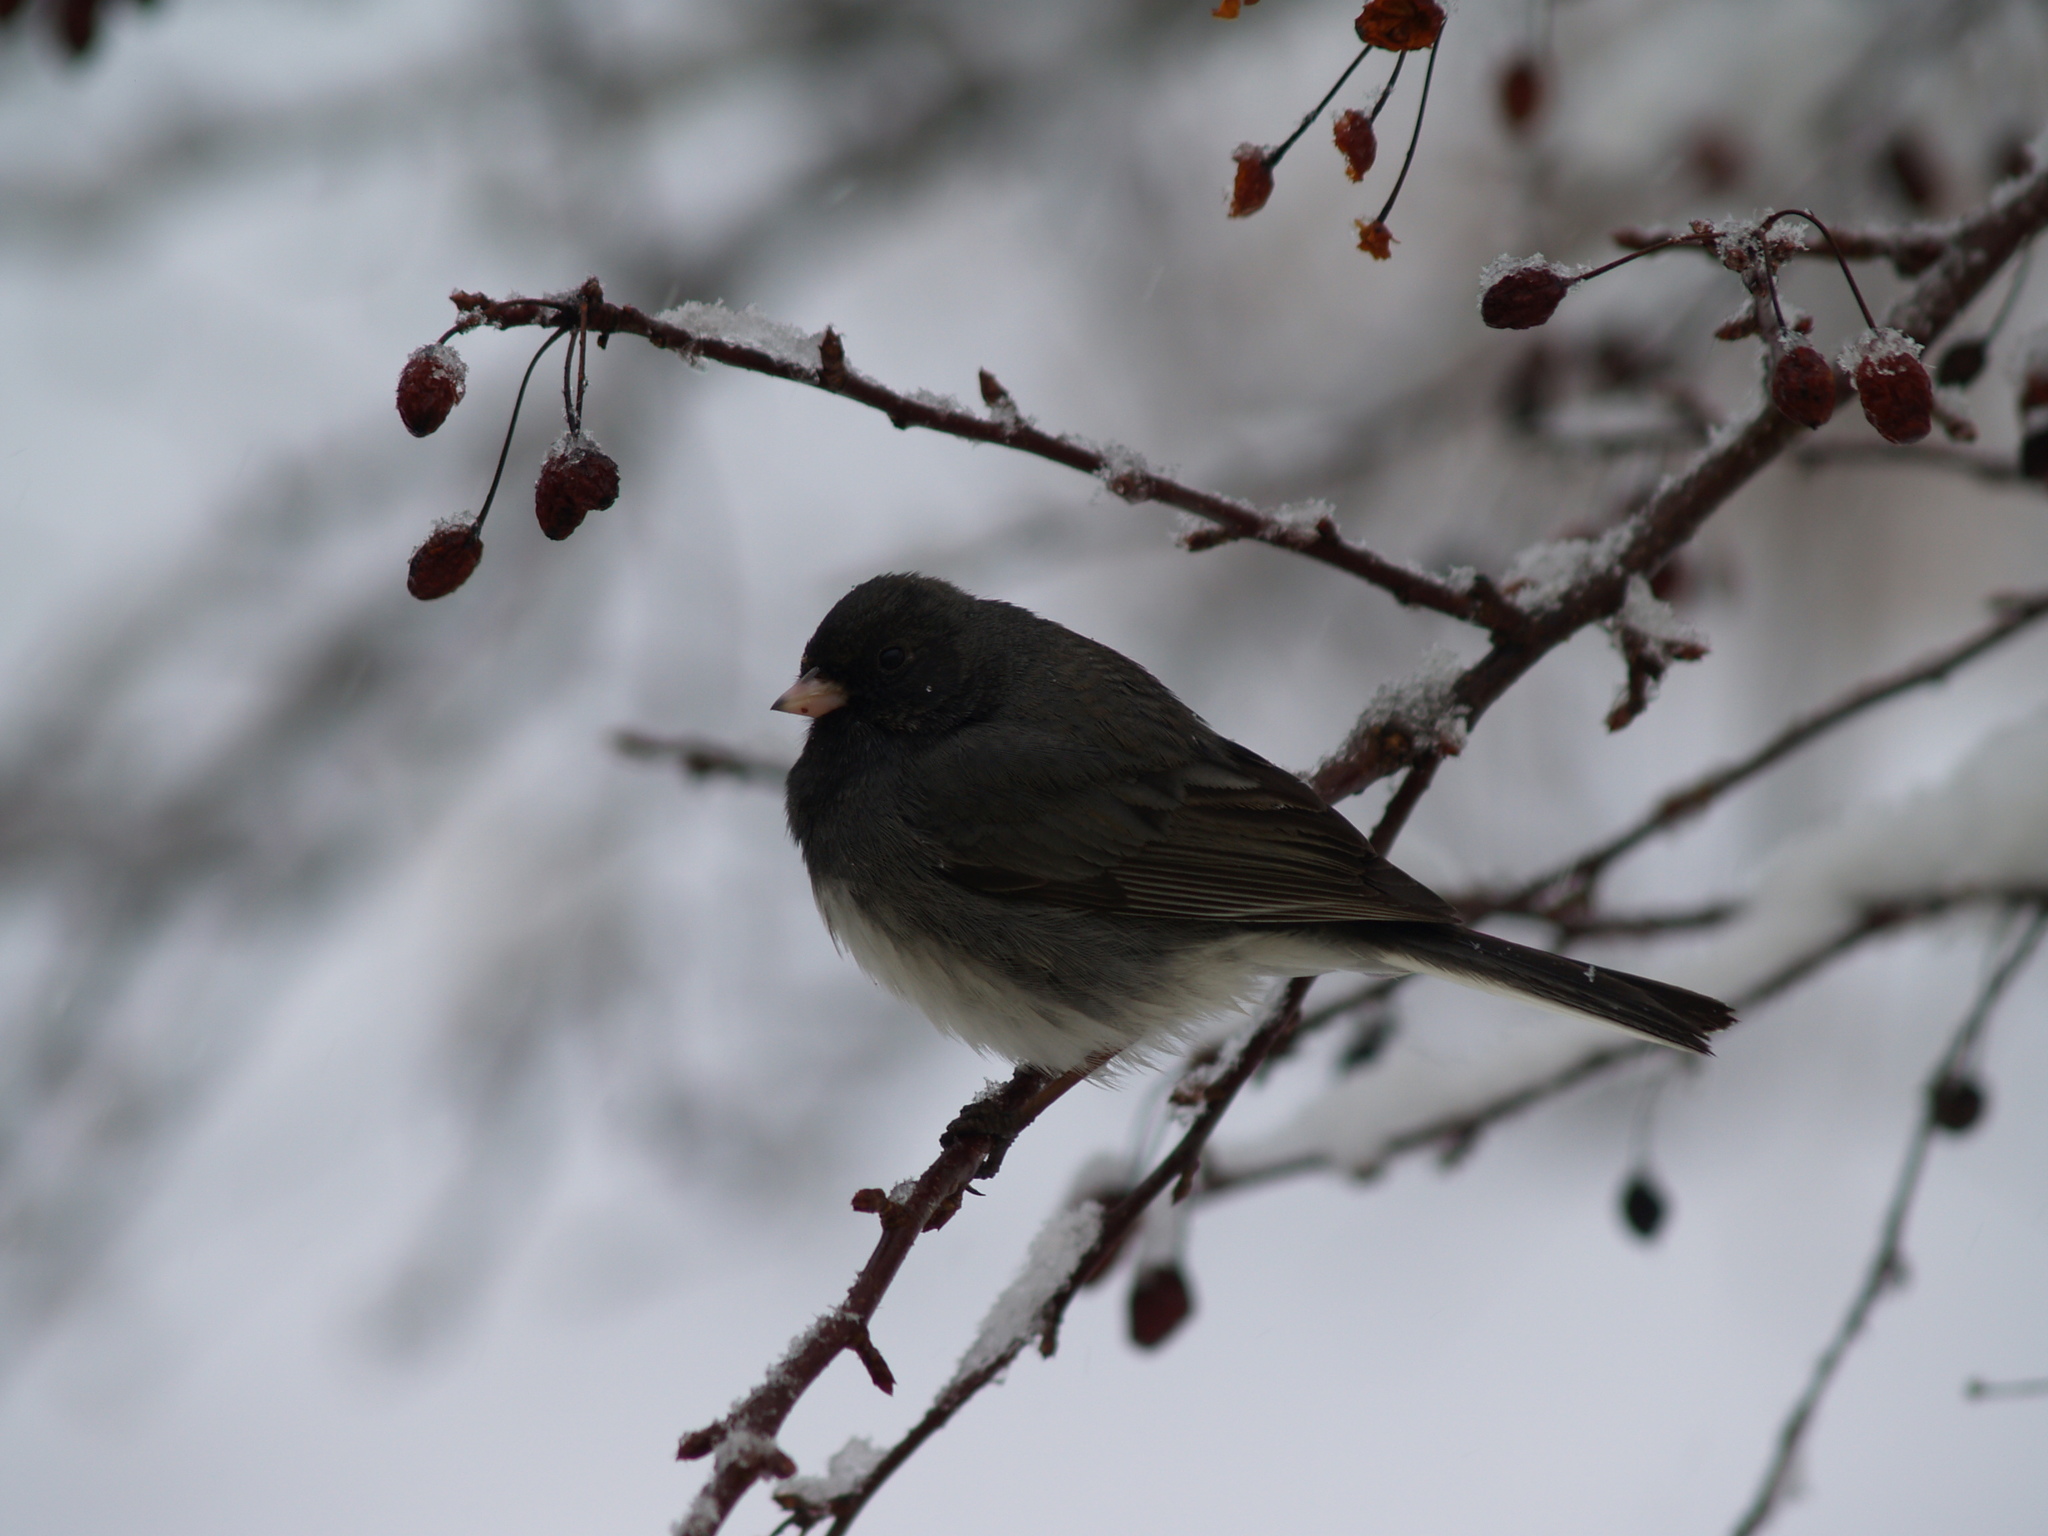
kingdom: Animalia
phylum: Chordata
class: Aves
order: Passeriformes
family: Passerellidae
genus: Junco
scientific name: Junco hyemalis
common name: Dark-eyed junco
